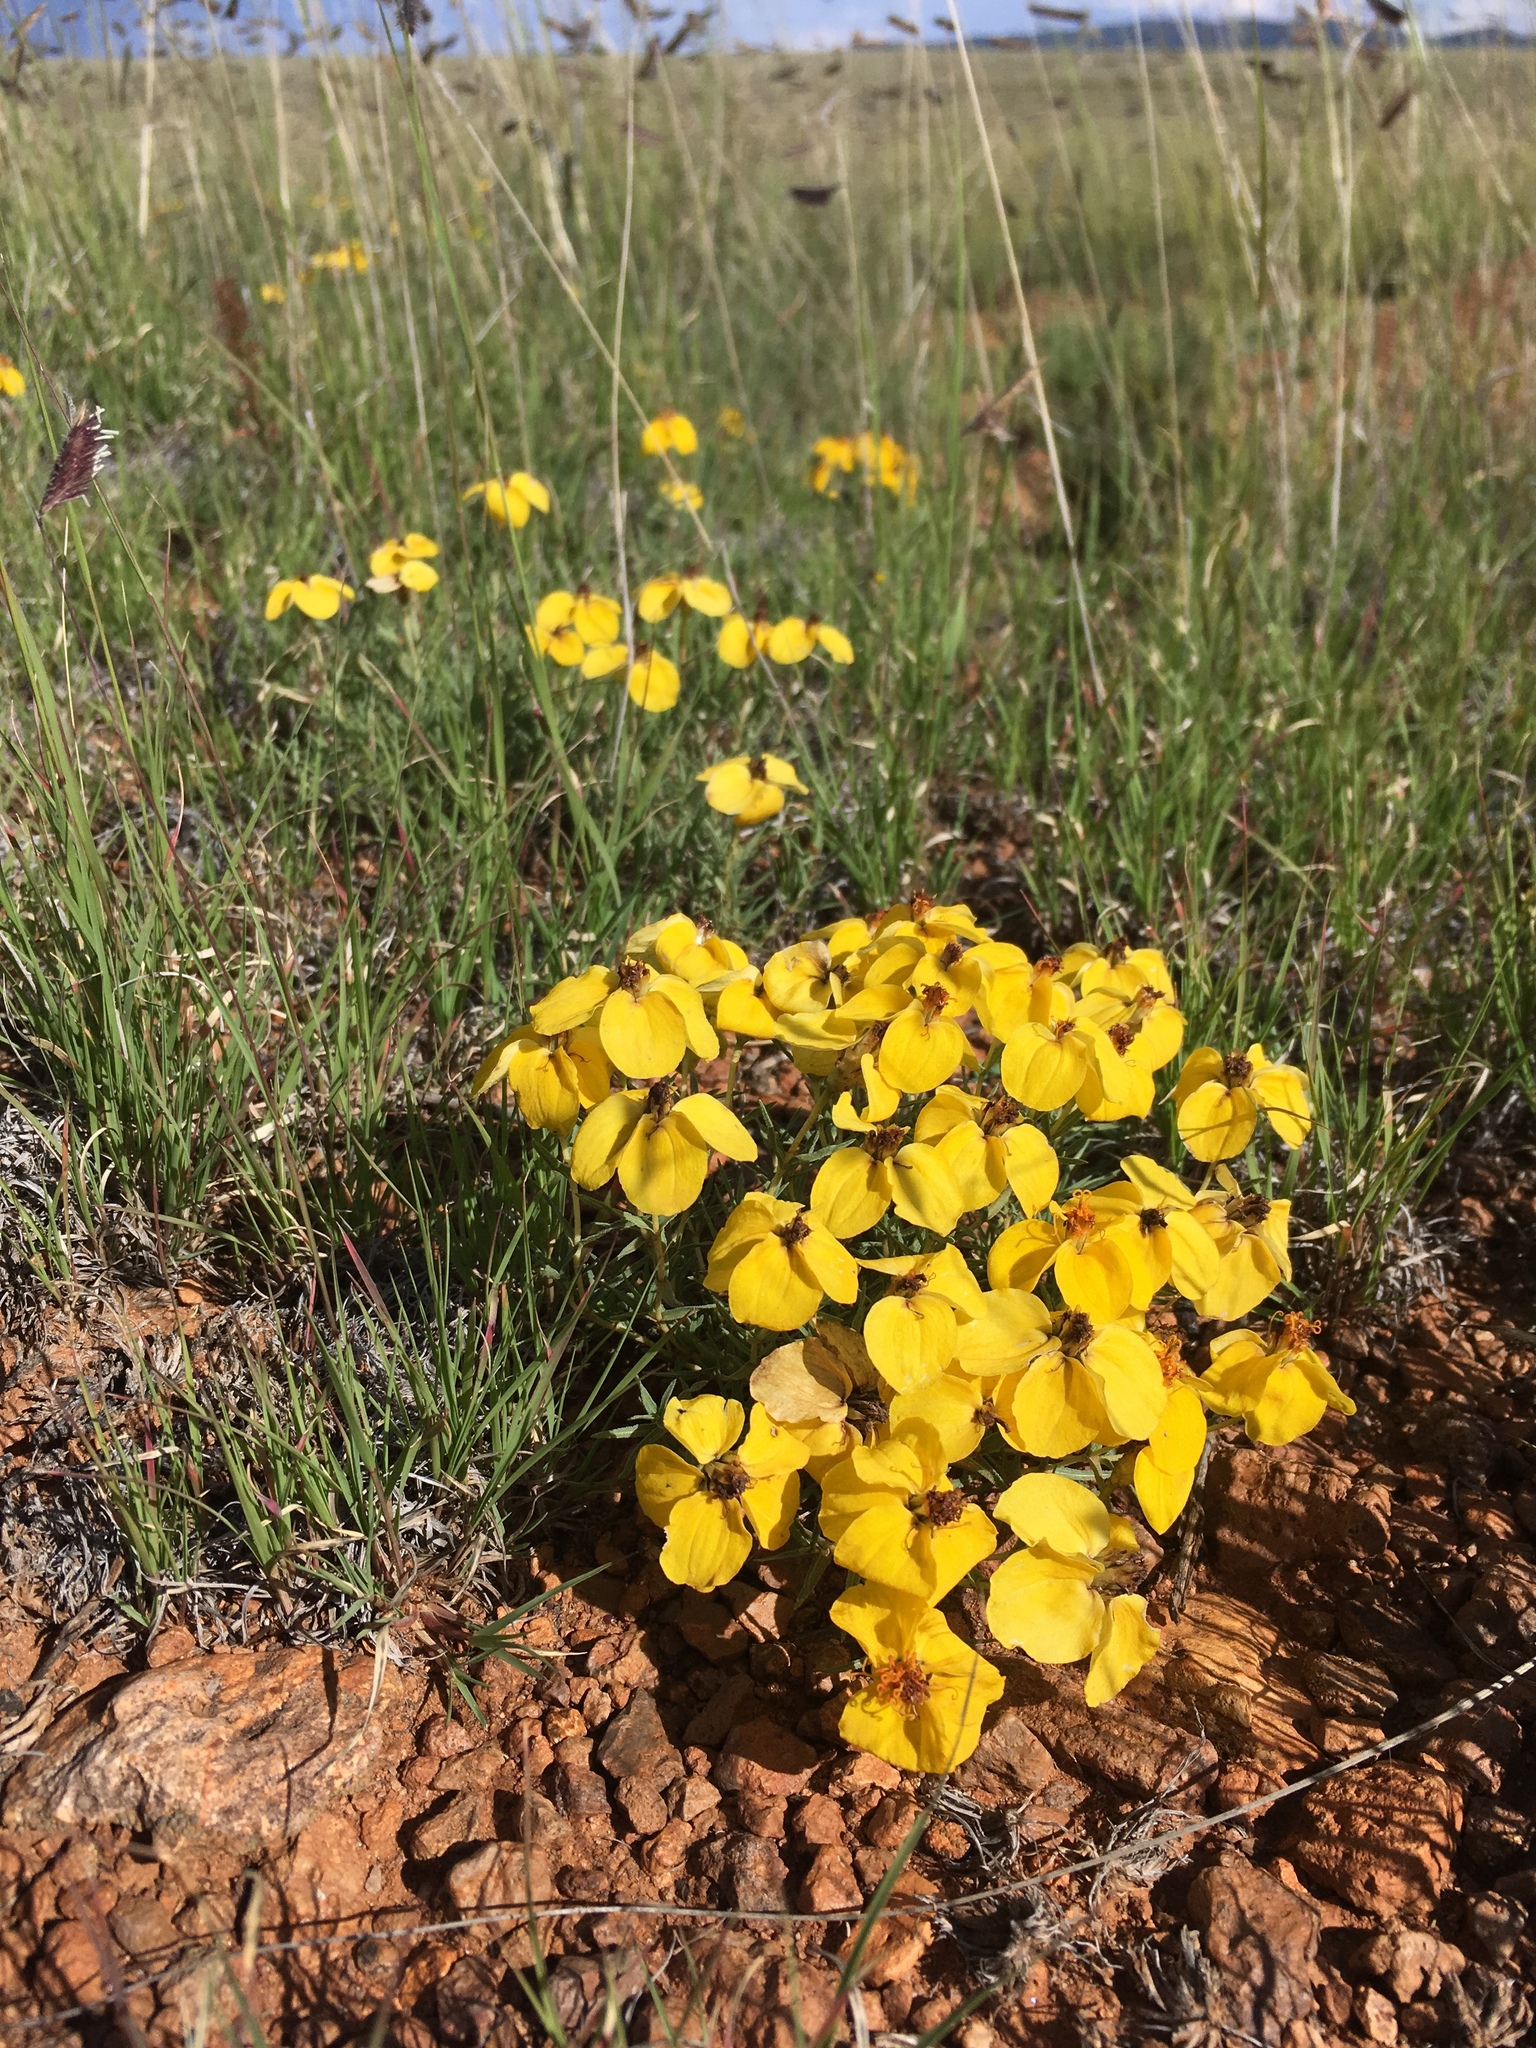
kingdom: Plantae
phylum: Tracheophyta
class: Magnoliopsida
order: Asterales
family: Asteraceae
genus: Zinnia
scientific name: Zinnia grandiflora
